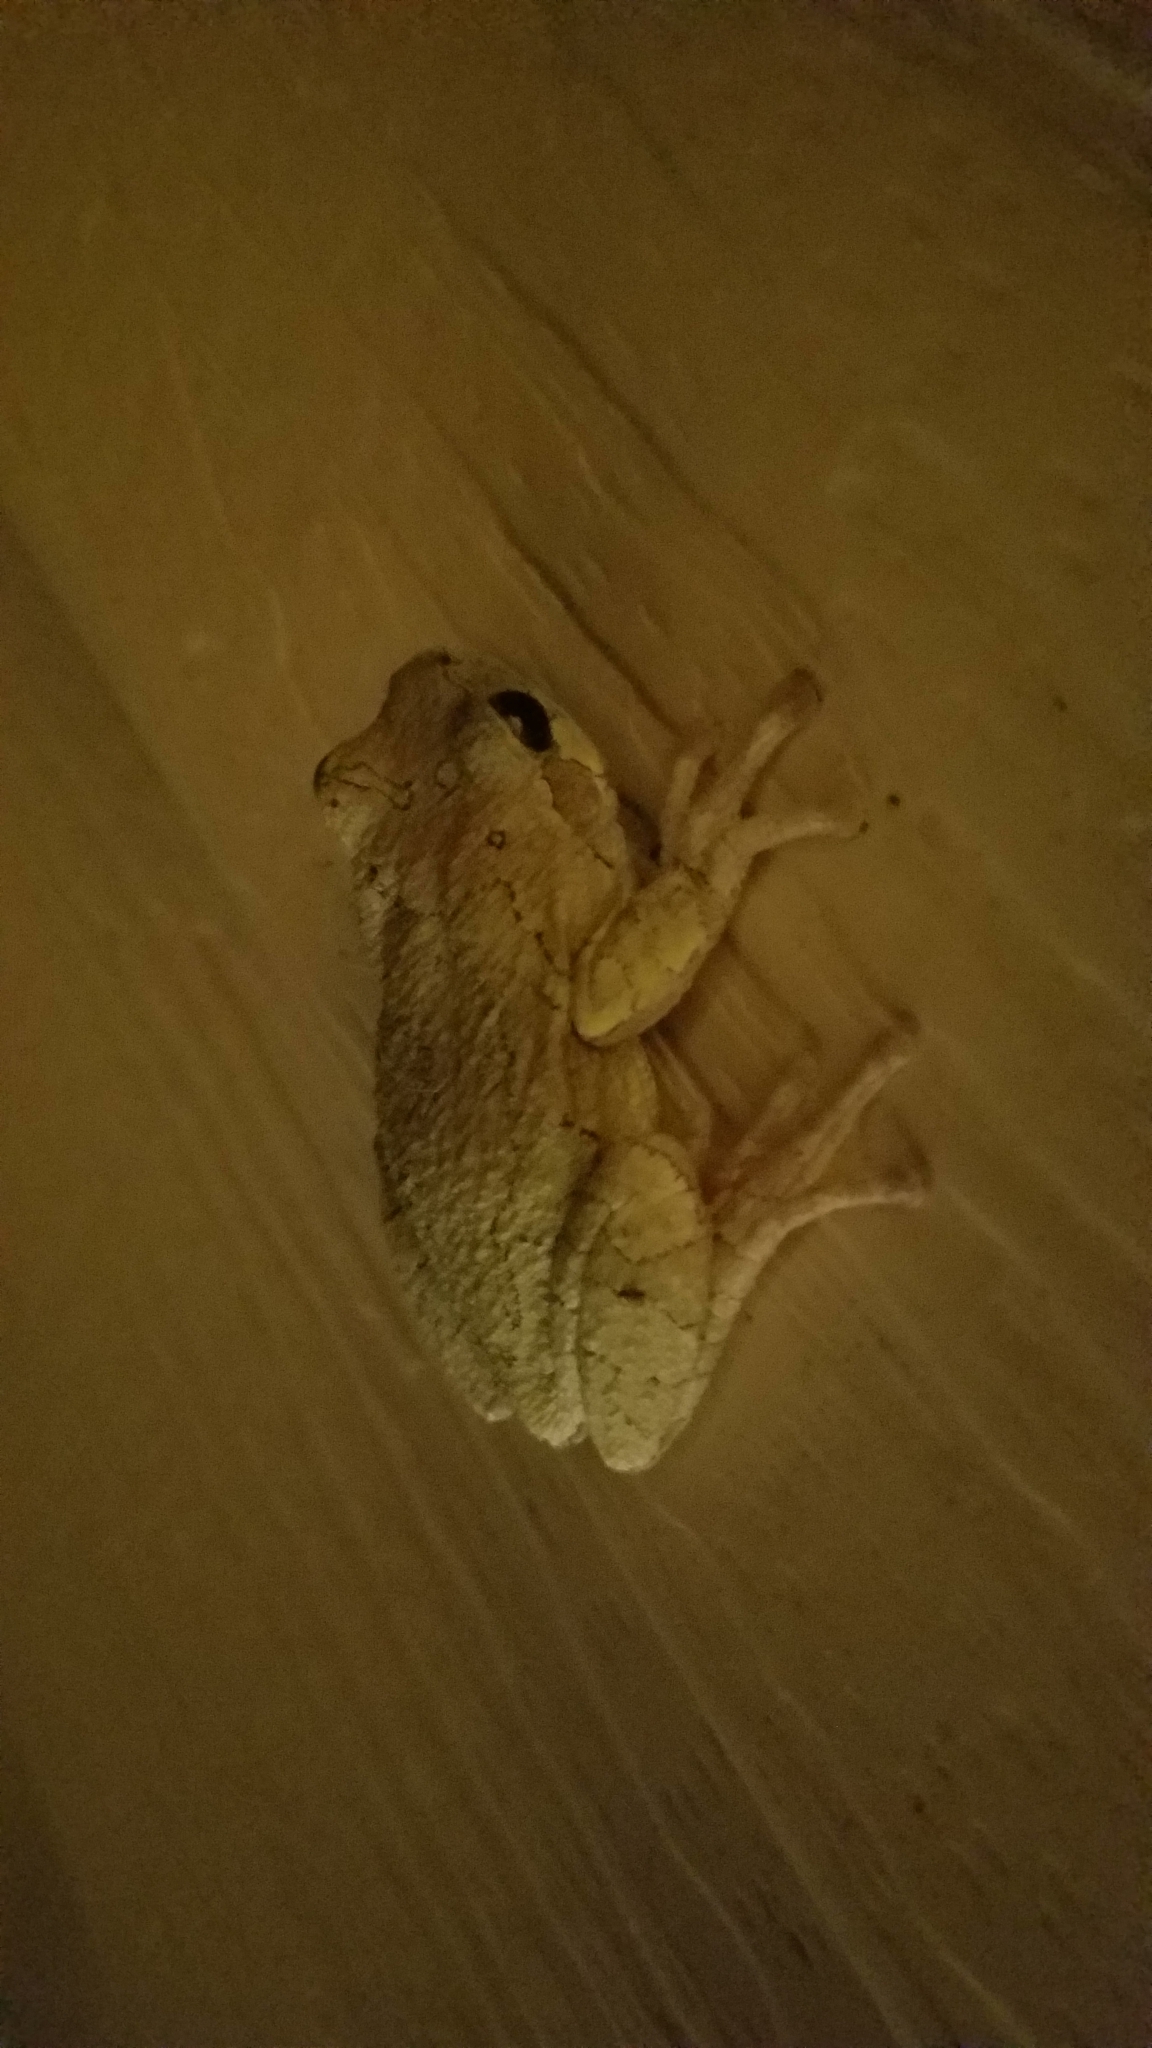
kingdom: Animalia
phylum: Chordata
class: Amphibia
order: Anura
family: Hylidae
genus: Hyla
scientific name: Hyla
